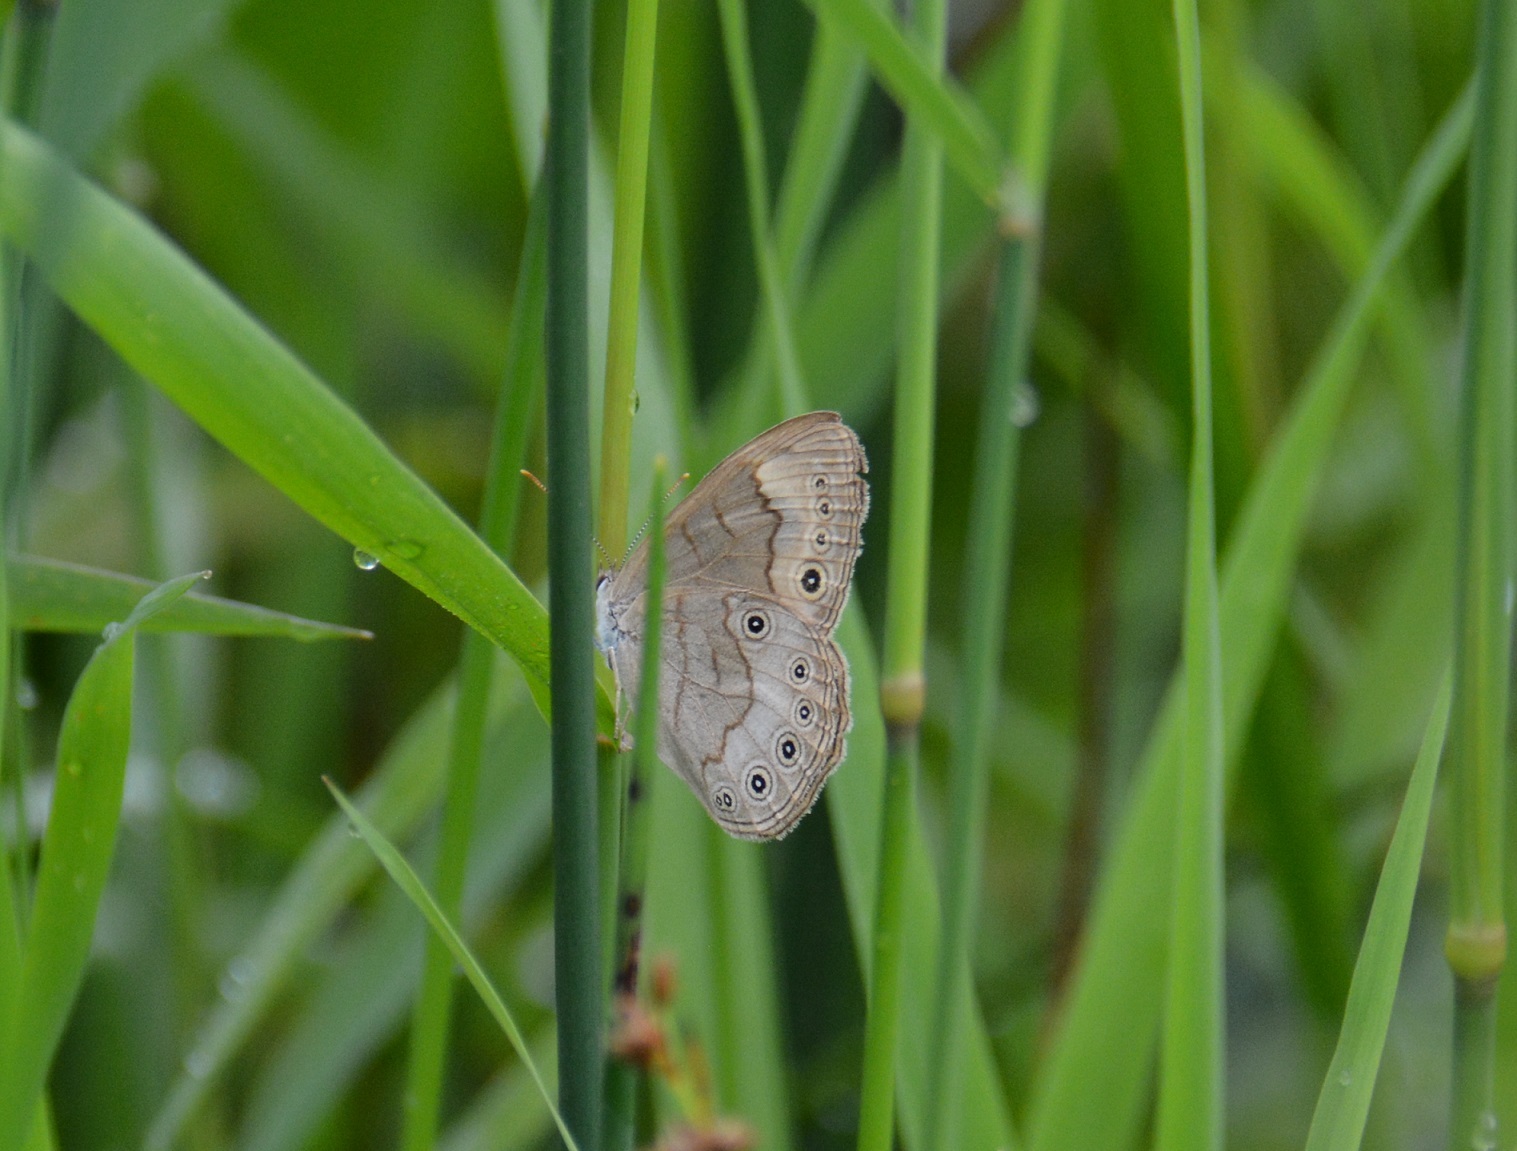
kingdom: Animalia
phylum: Arthropoda
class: Insecta
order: Lepidoptera
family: Nymphalidae
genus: Lethe
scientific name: Lethe eurydice
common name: Eyed brown
